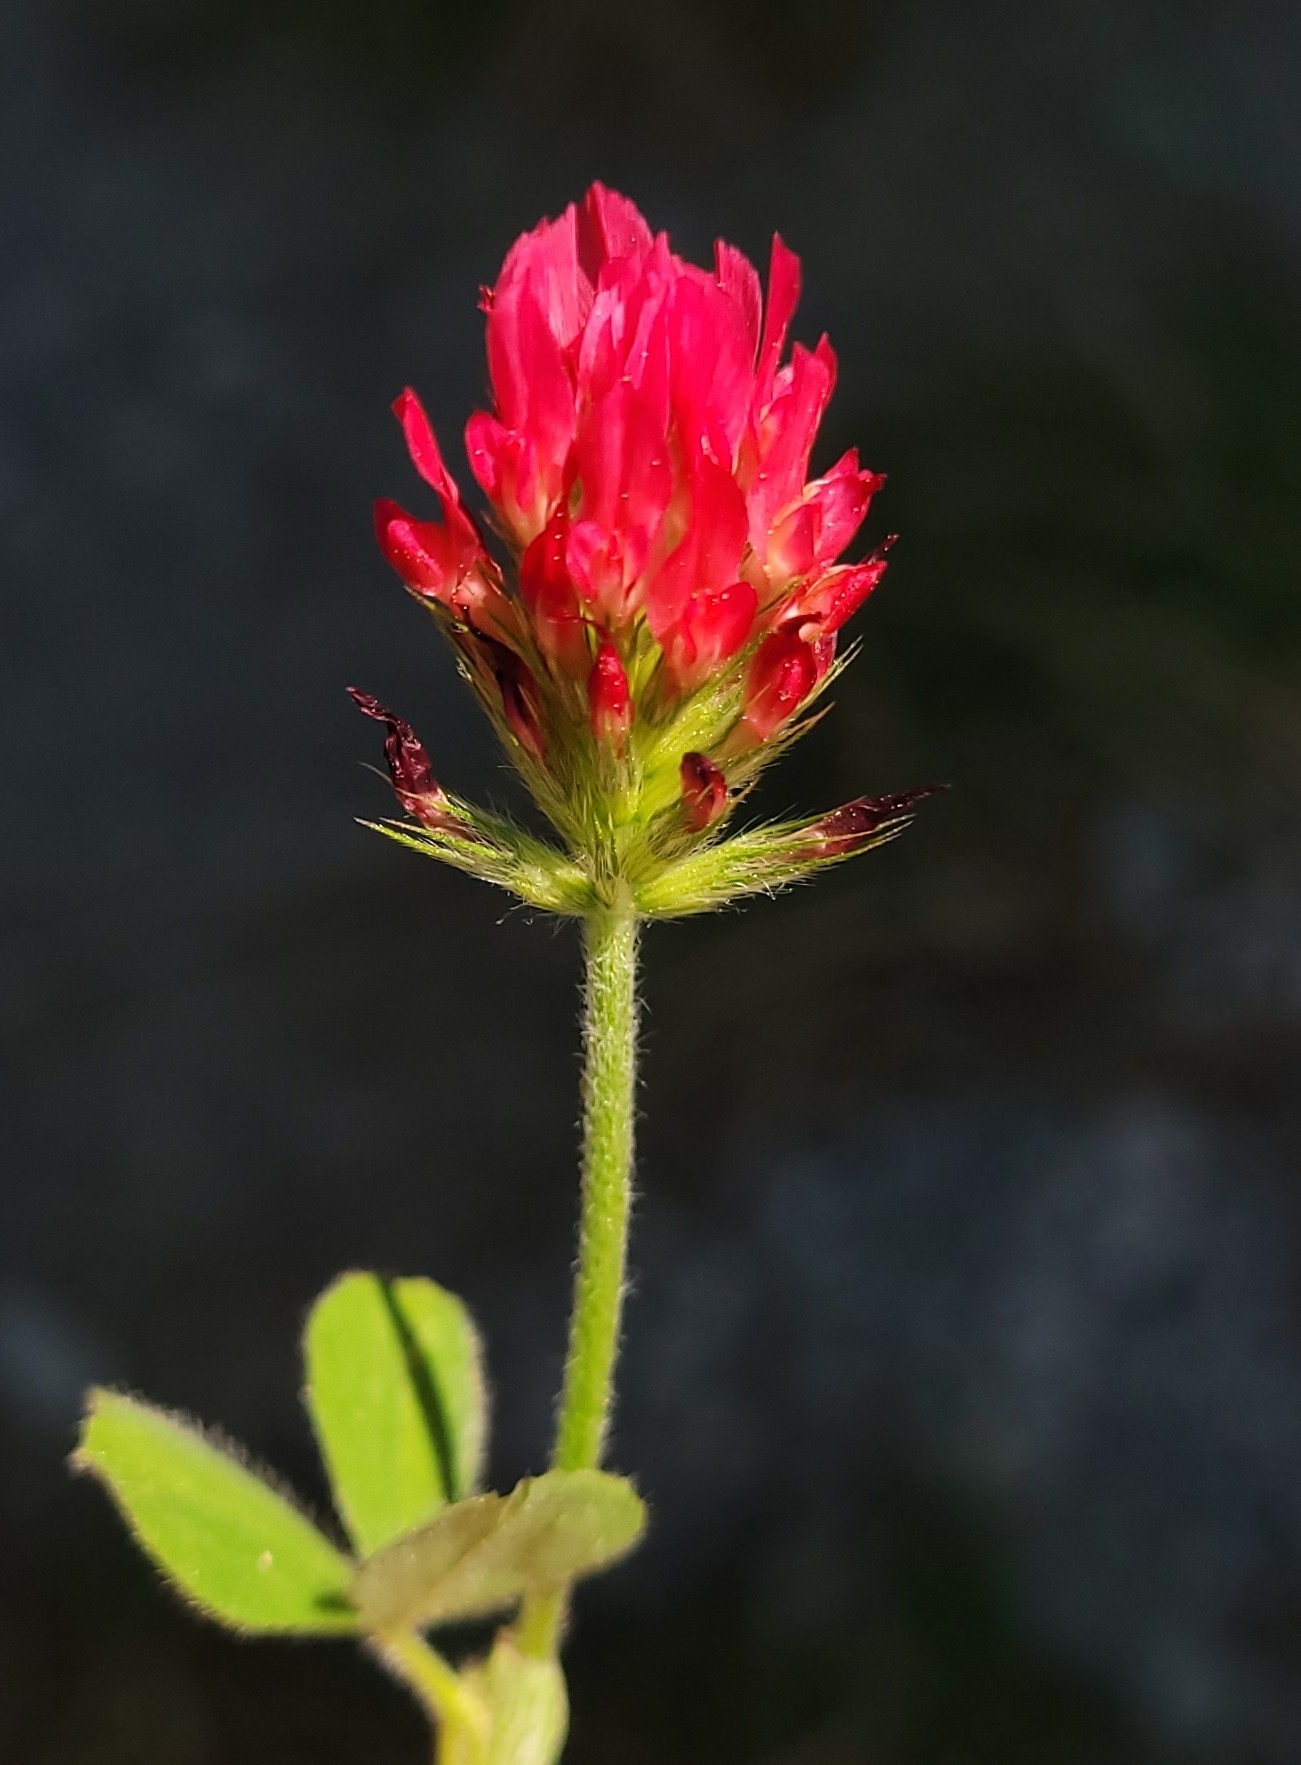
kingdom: Plantae
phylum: Tracheophyta
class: Magnoliopsida
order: Fabales
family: Fabaceae
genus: Trifolium
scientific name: Trifolium incarnatum
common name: Crimson clover
